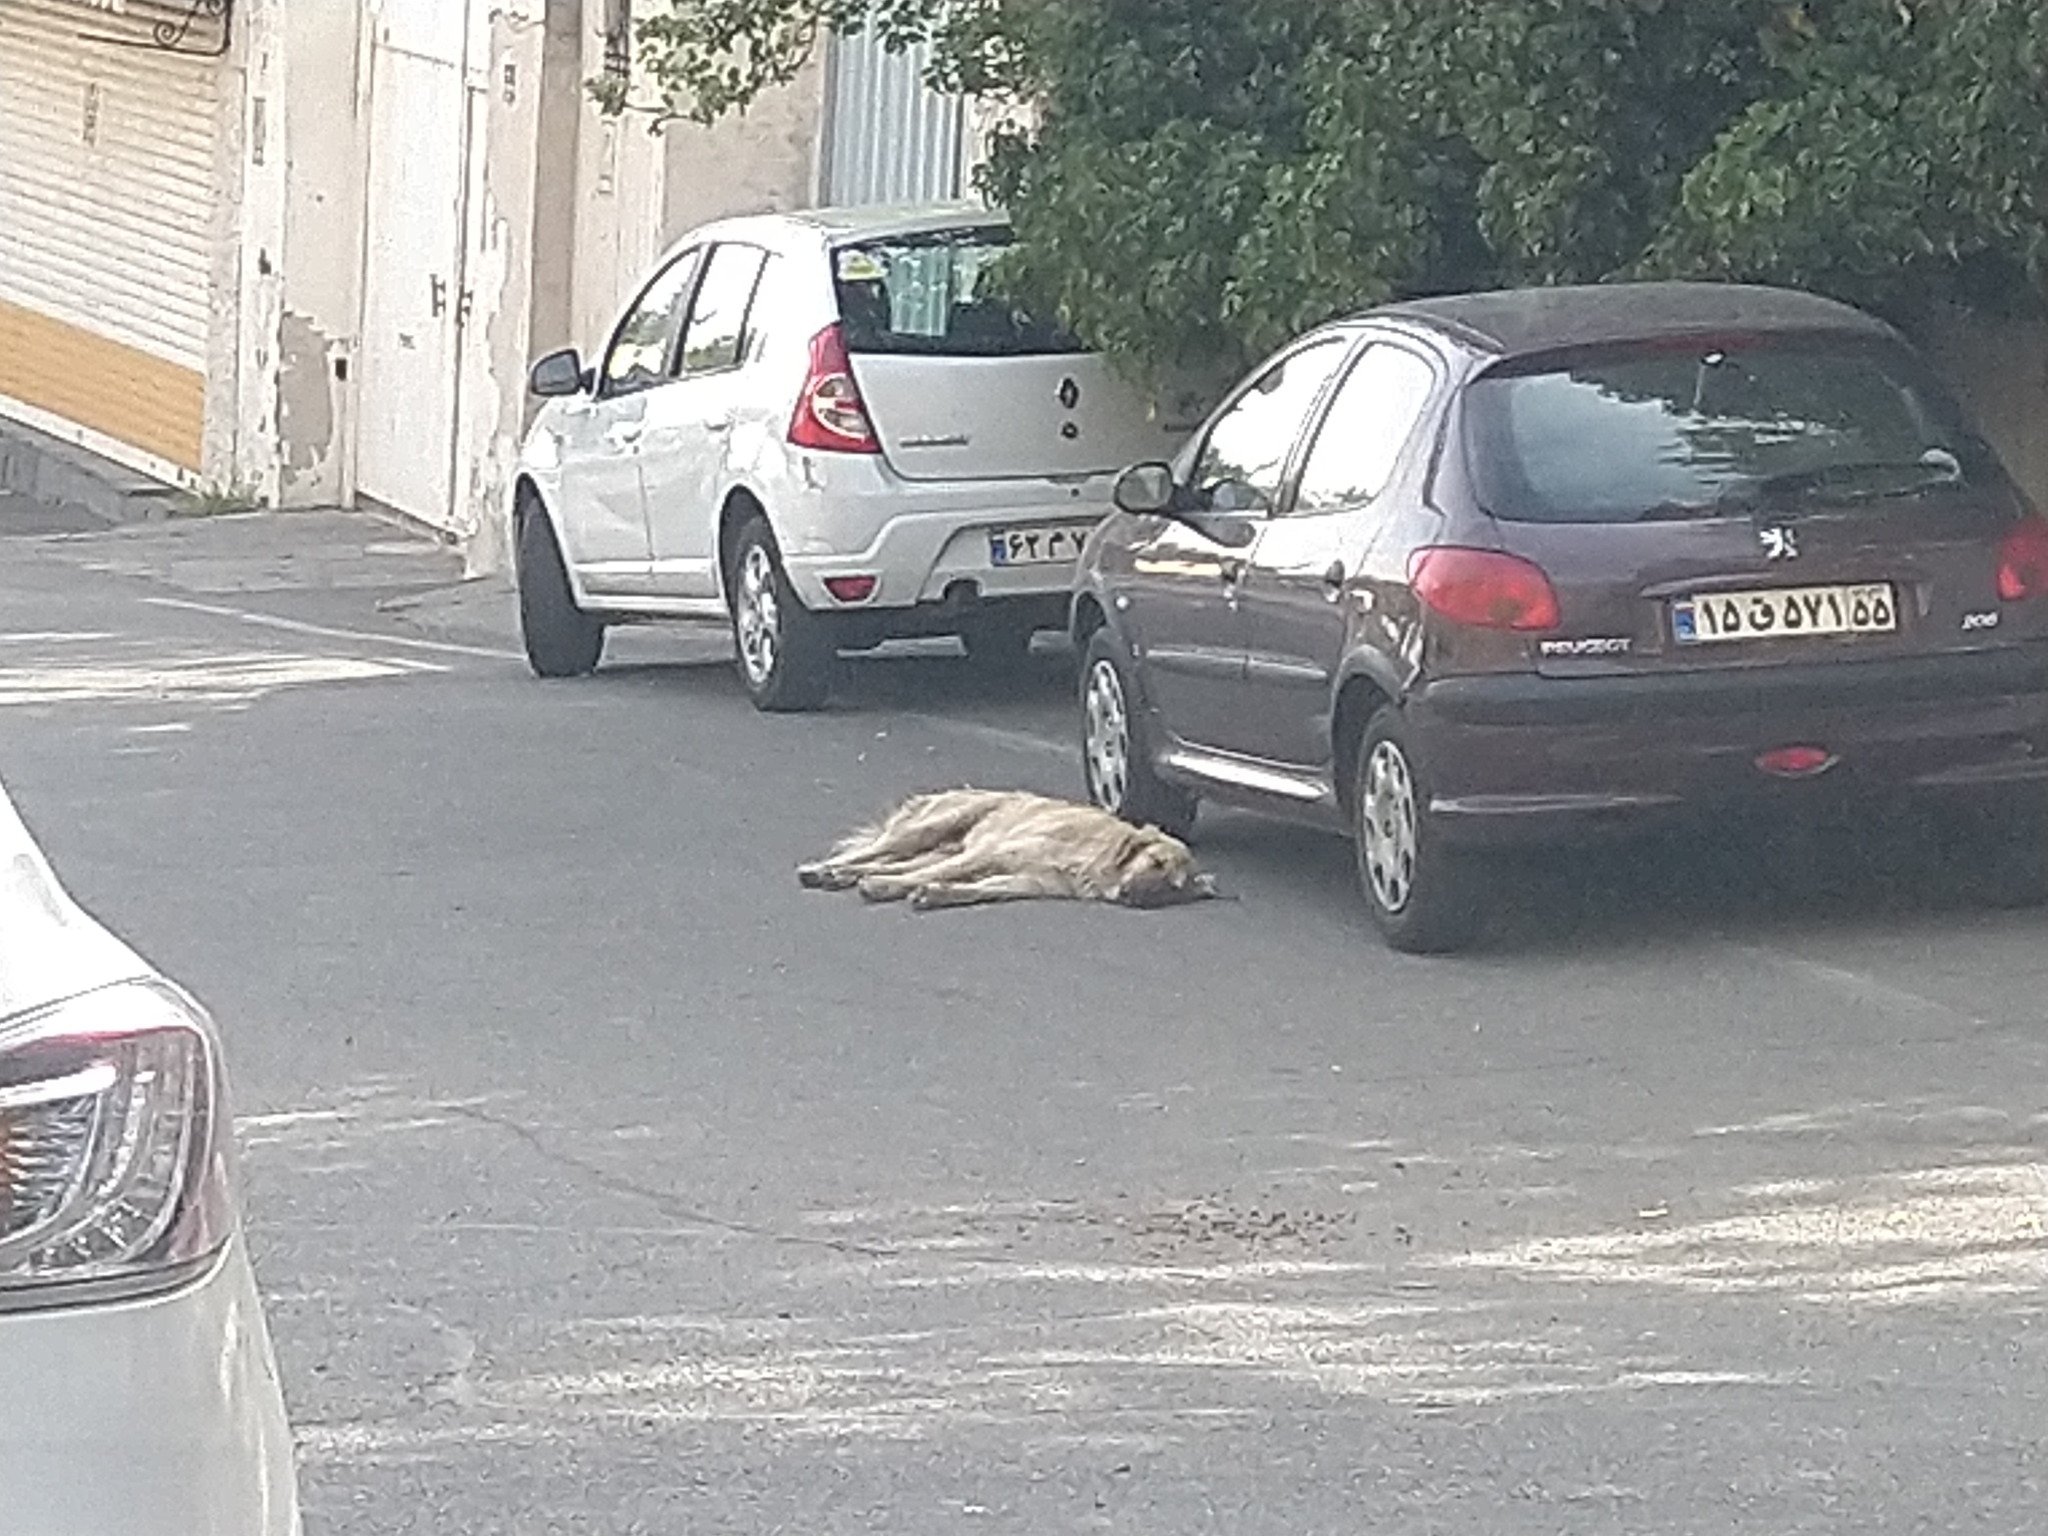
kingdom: Animalia
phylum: Chordata
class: Mammalia
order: Carnivora
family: Canidae
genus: Canis
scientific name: Canis lupus
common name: Gray wolf
